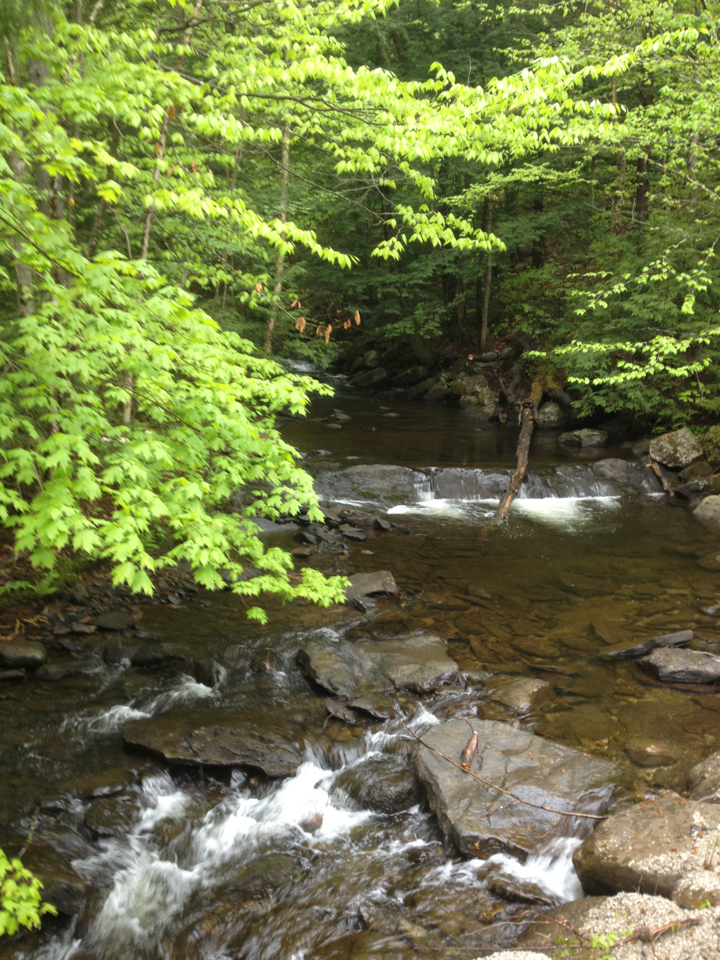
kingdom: Plantae
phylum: Tracheophyta
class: Magnoliopsida
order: Sapindales
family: Sapindaceae
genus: Acer
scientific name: Acer saccharum
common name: Sugar maple
